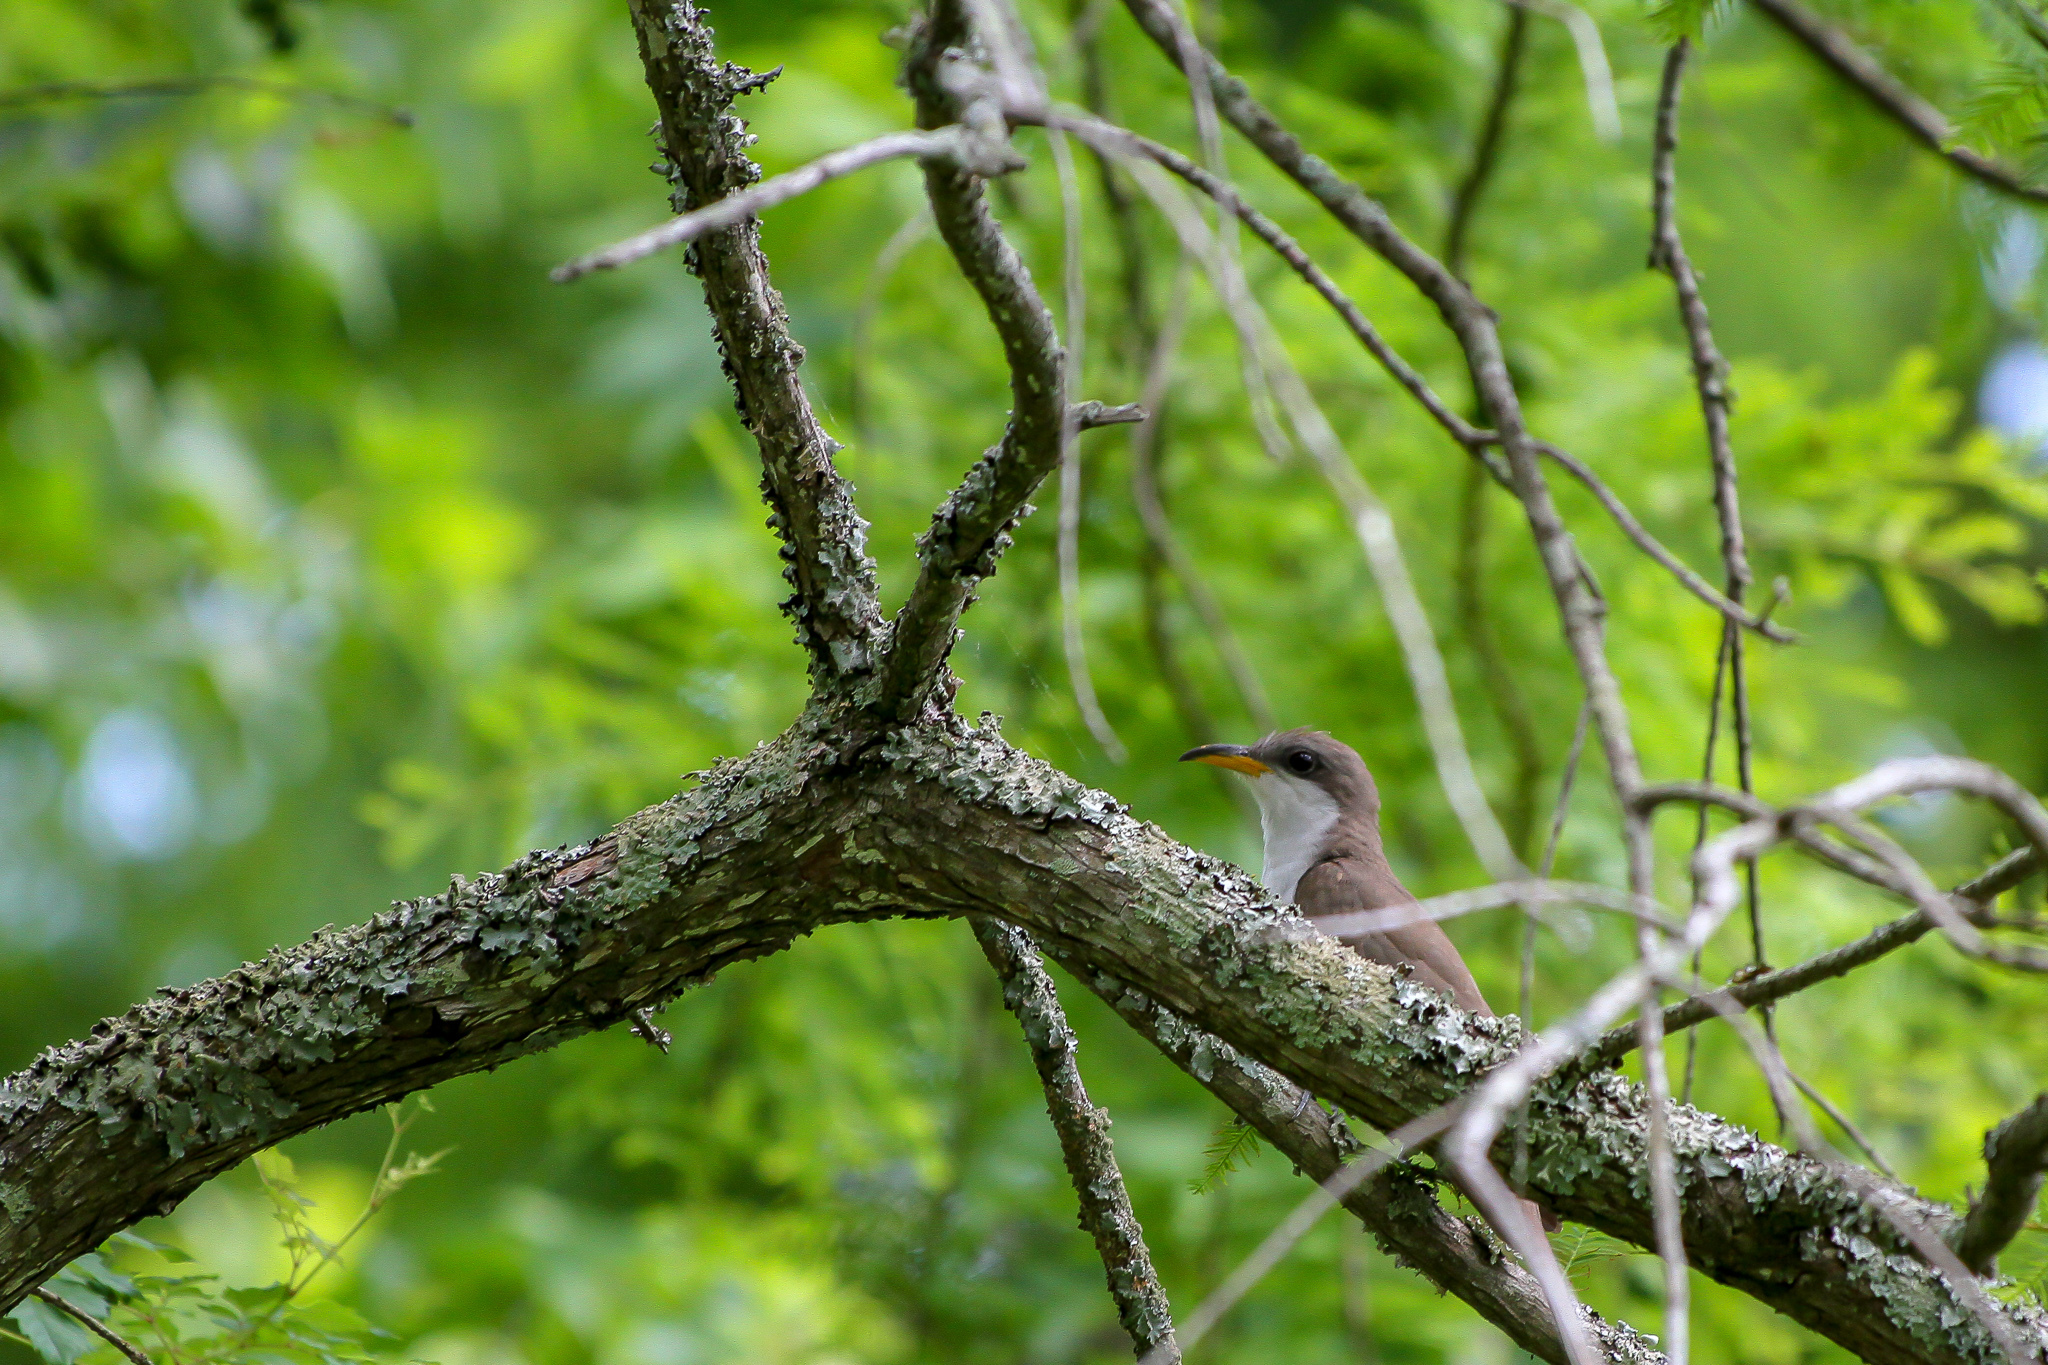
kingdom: Animalia
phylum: Chordata
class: Aves
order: Cuculiformes
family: Cuculidae
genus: Coccyzus
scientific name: Coccyzus americanus
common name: Yellow-billed cuckoo
